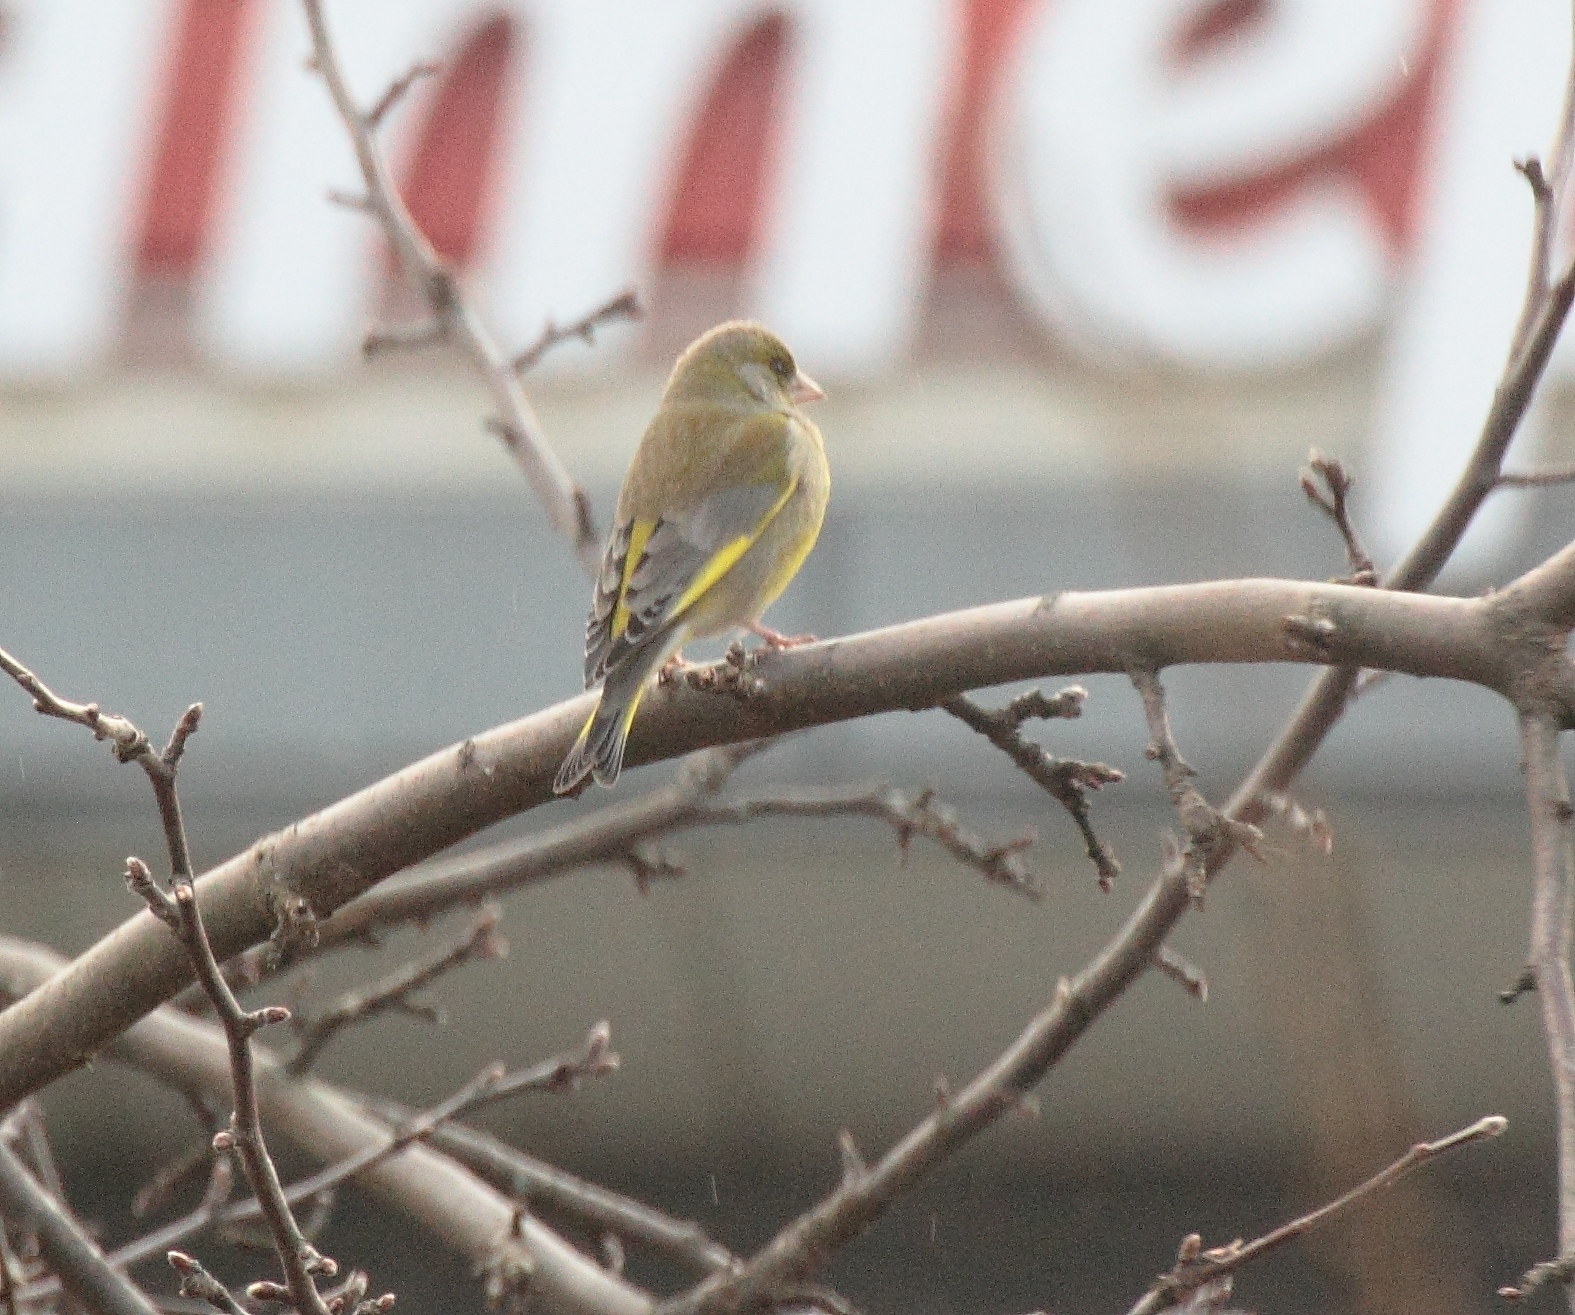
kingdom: Plantae
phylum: Tracheophyta
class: Liliopsida
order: Poales
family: Poaceae
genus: Chloris
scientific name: Chloris chloris
